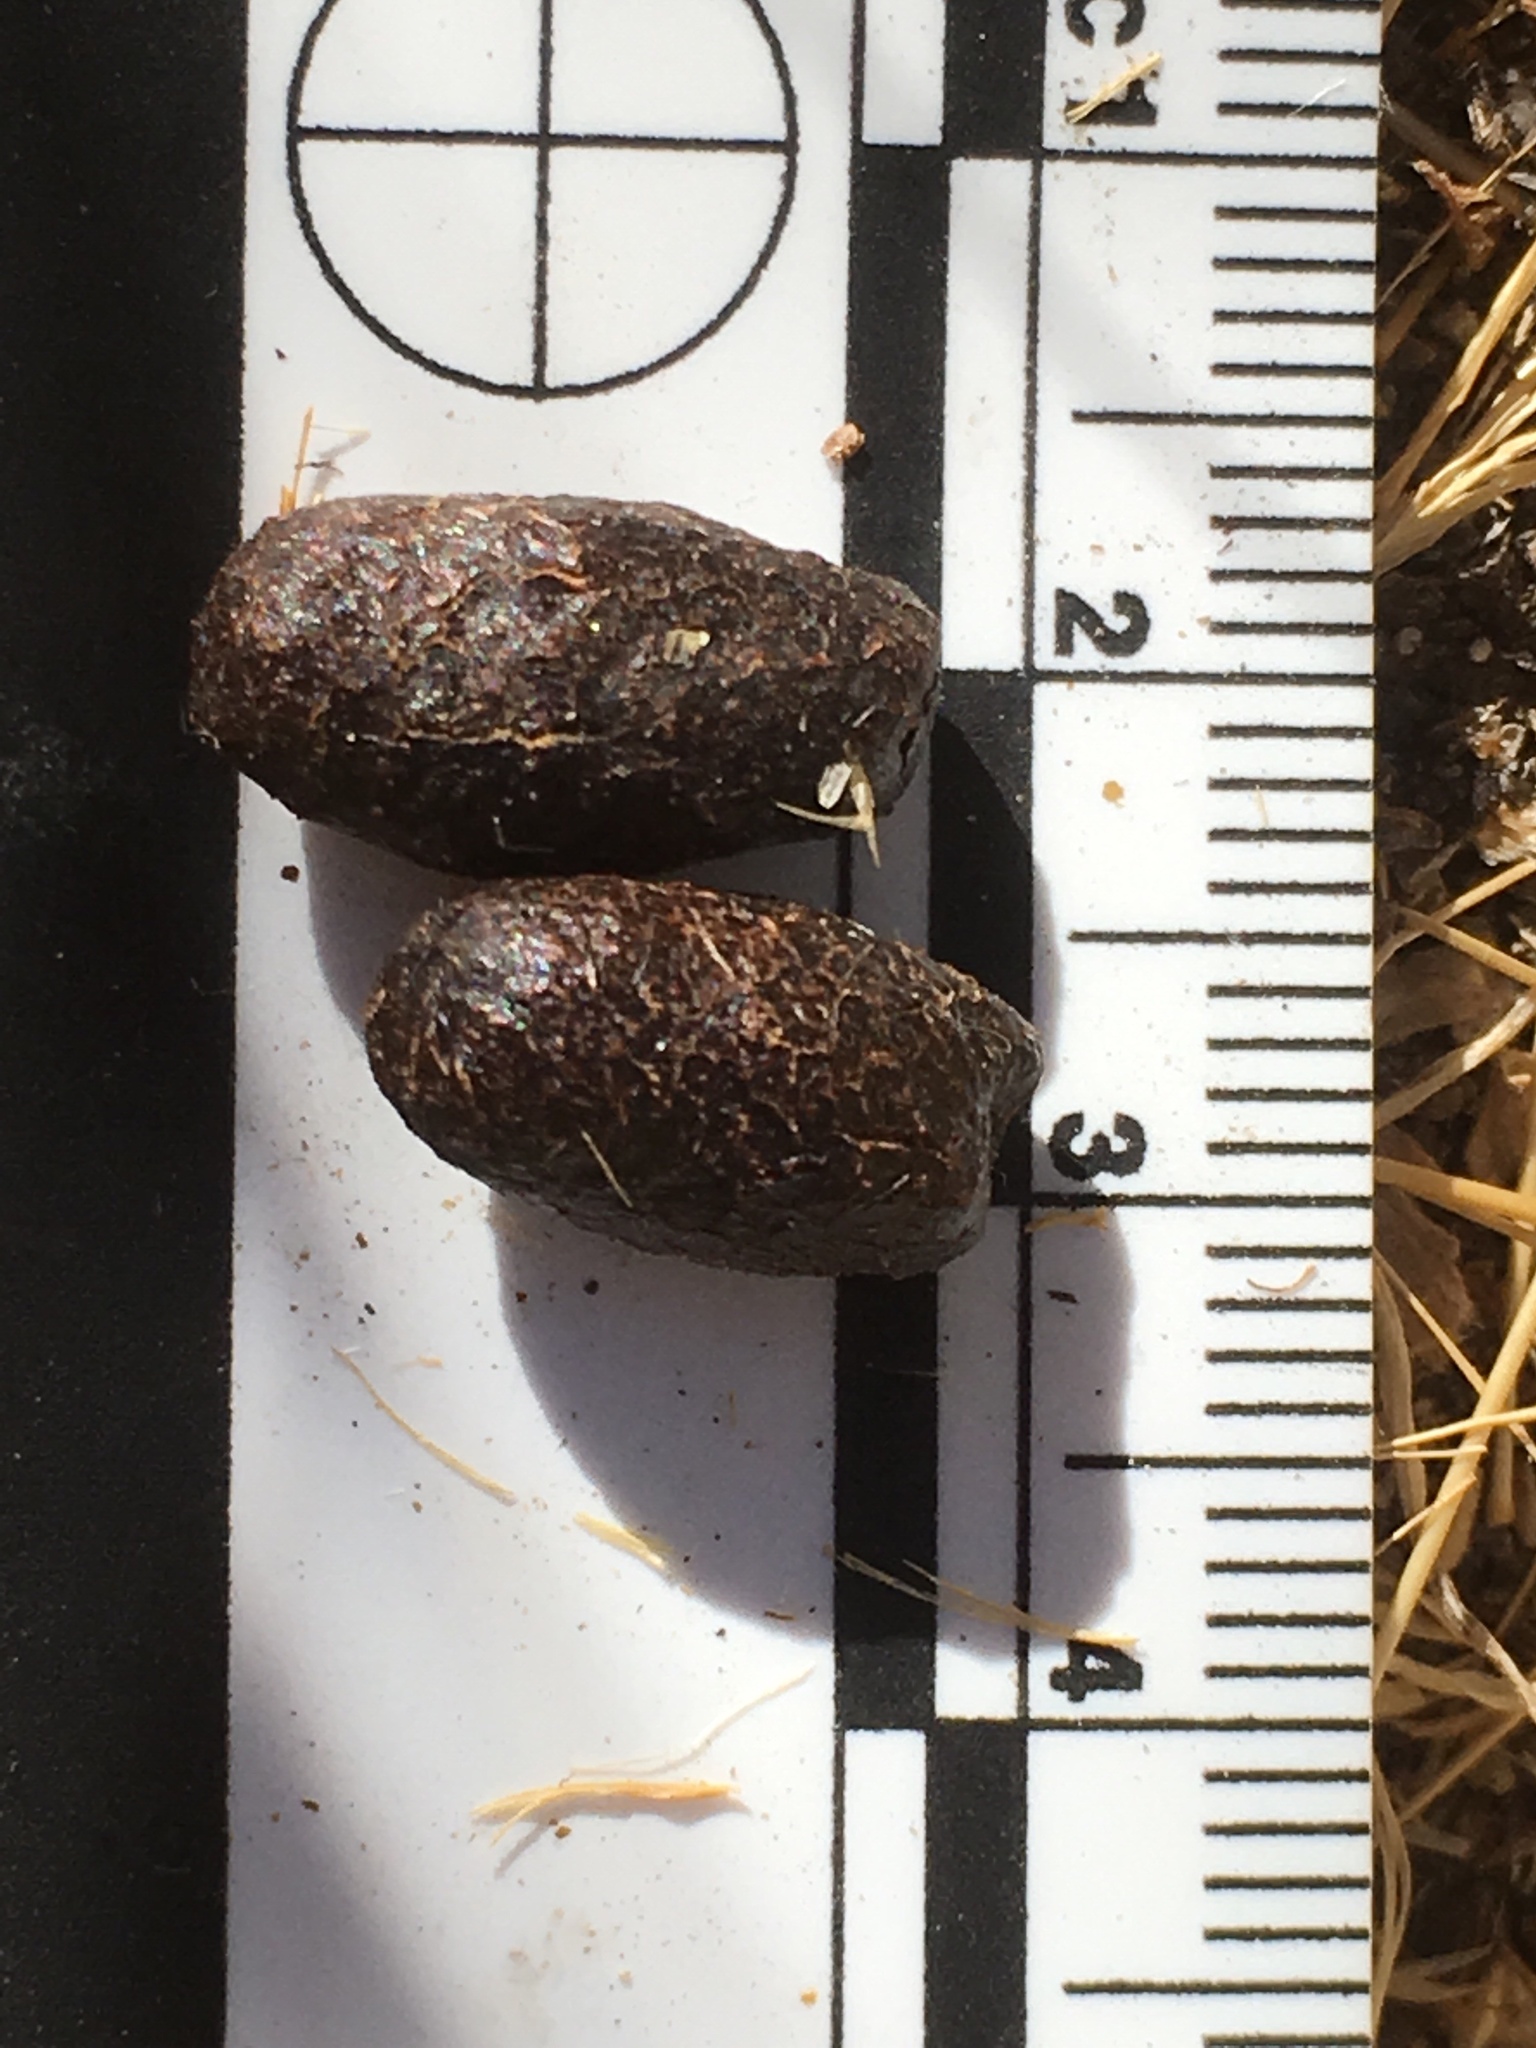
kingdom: Animalia
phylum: Chordata
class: Mammalia
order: Artiodactyla
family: Cervidae
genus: Odocoileus
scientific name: Odocoileus hemionus
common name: Mule deer
